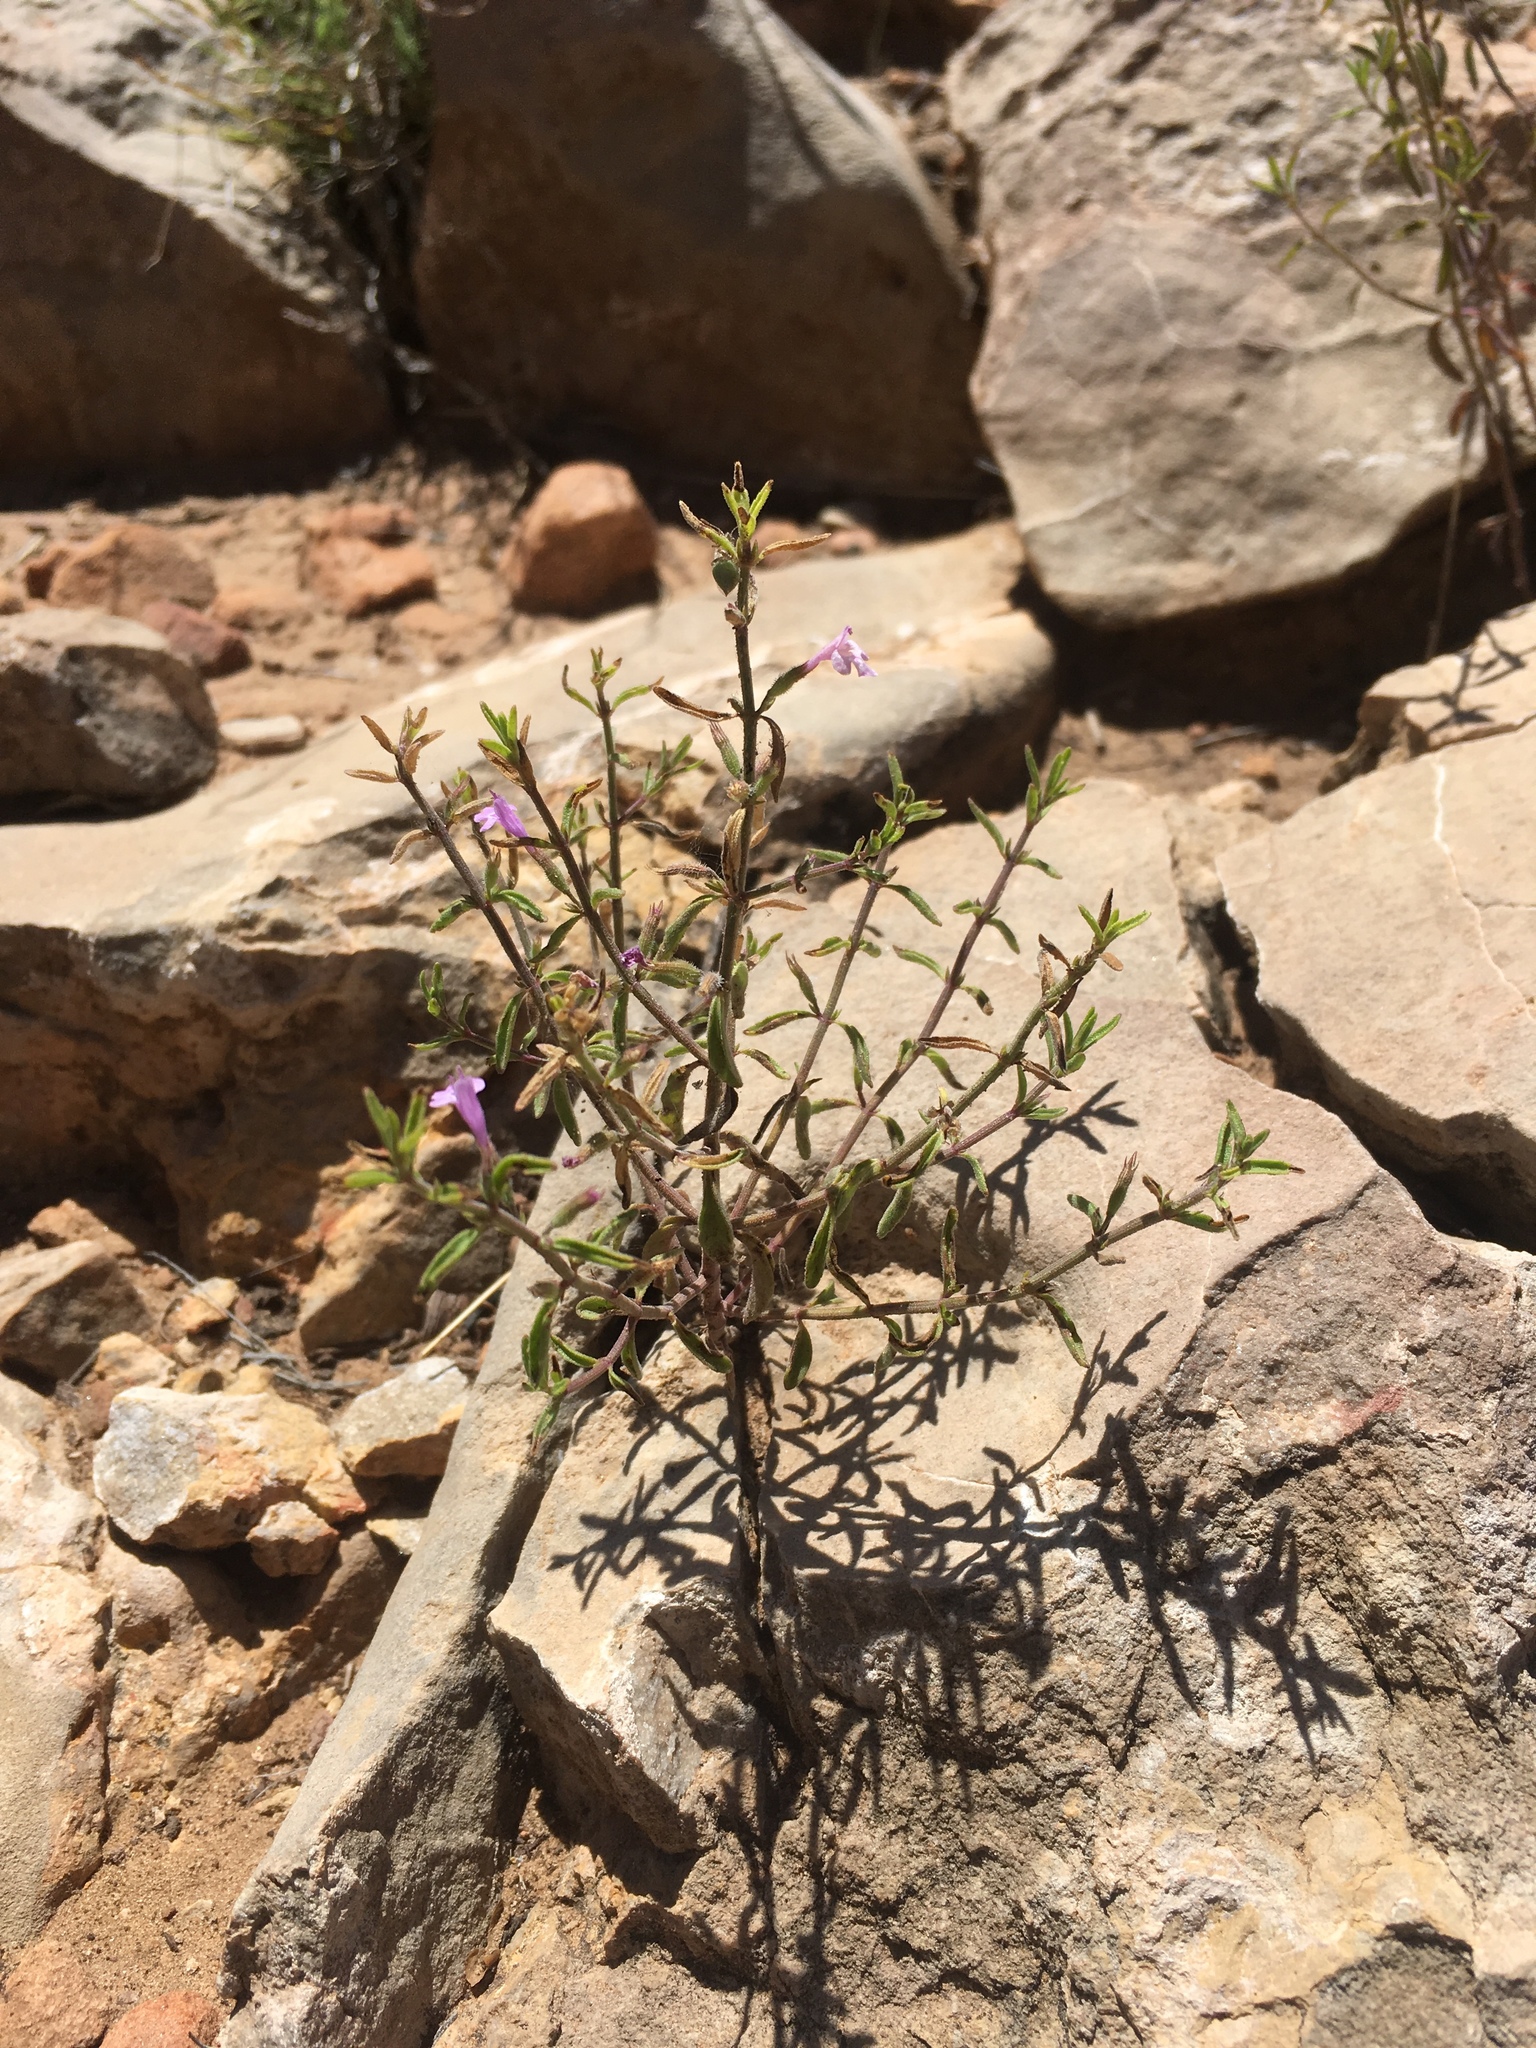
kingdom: Plantae
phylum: Tracheophyta
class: Magnoliopsida
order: Lamiales
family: Lamiaceae
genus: Hedeoma
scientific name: Hedeoma drummondii
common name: New mexico pennyroyal
